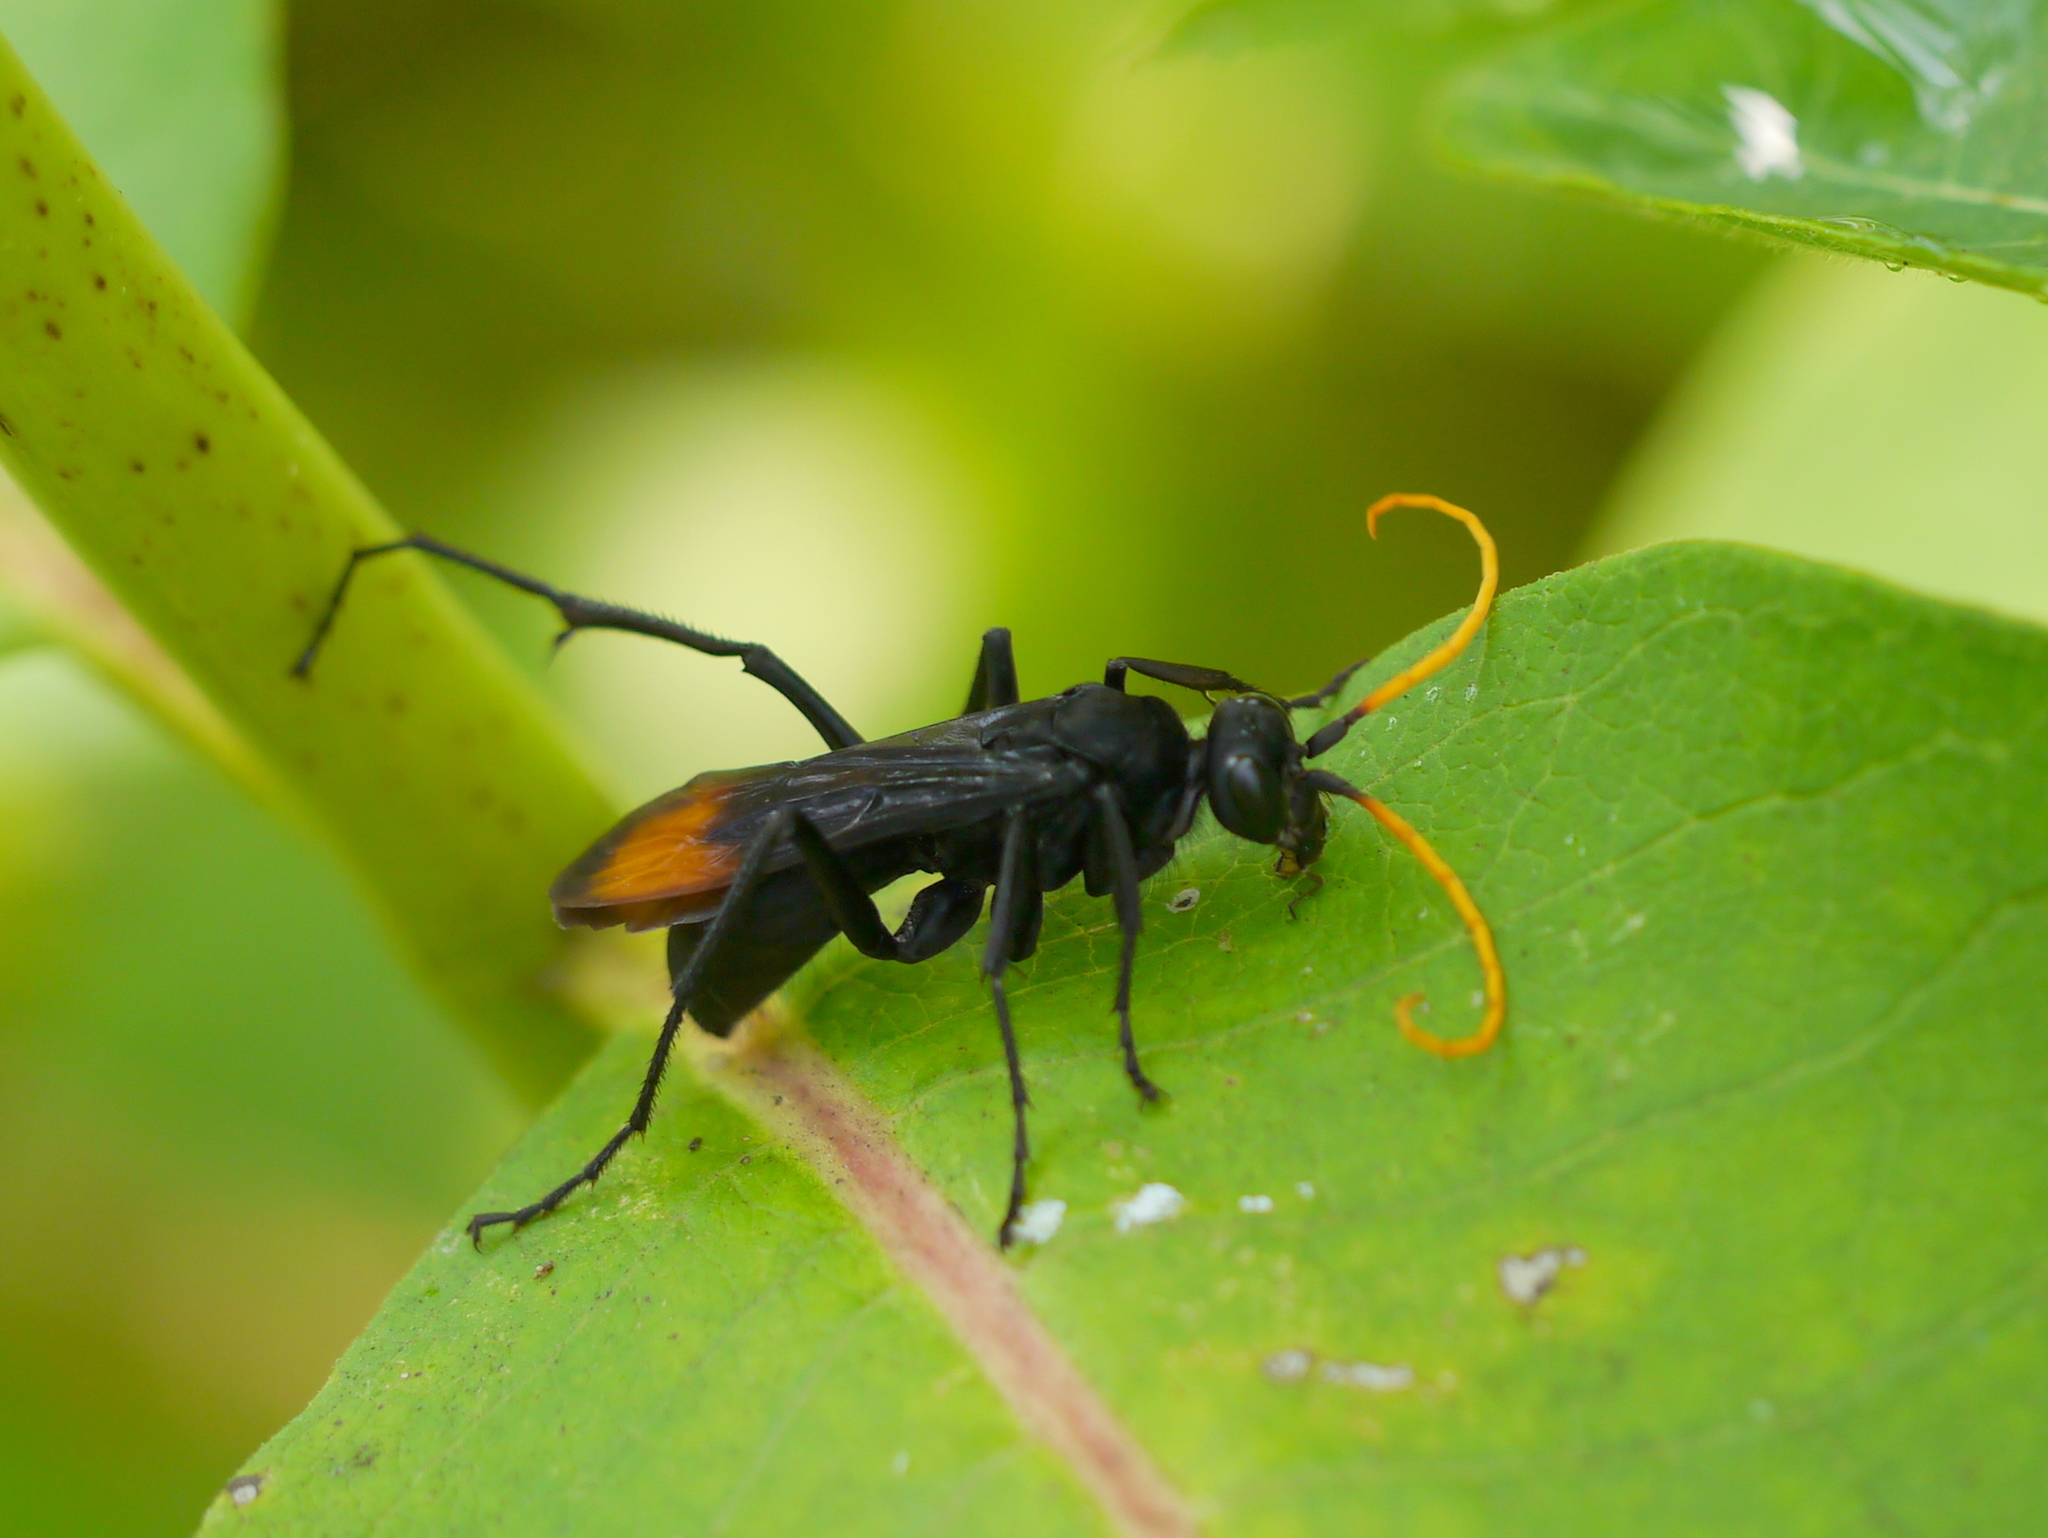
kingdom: Animalia
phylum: Arthropoda
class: Insecta
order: Hymenoptera
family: Pompilidae
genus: Entypus
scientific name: Entypus unifasciatus
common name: Eastern tawny-horned spider wasp
